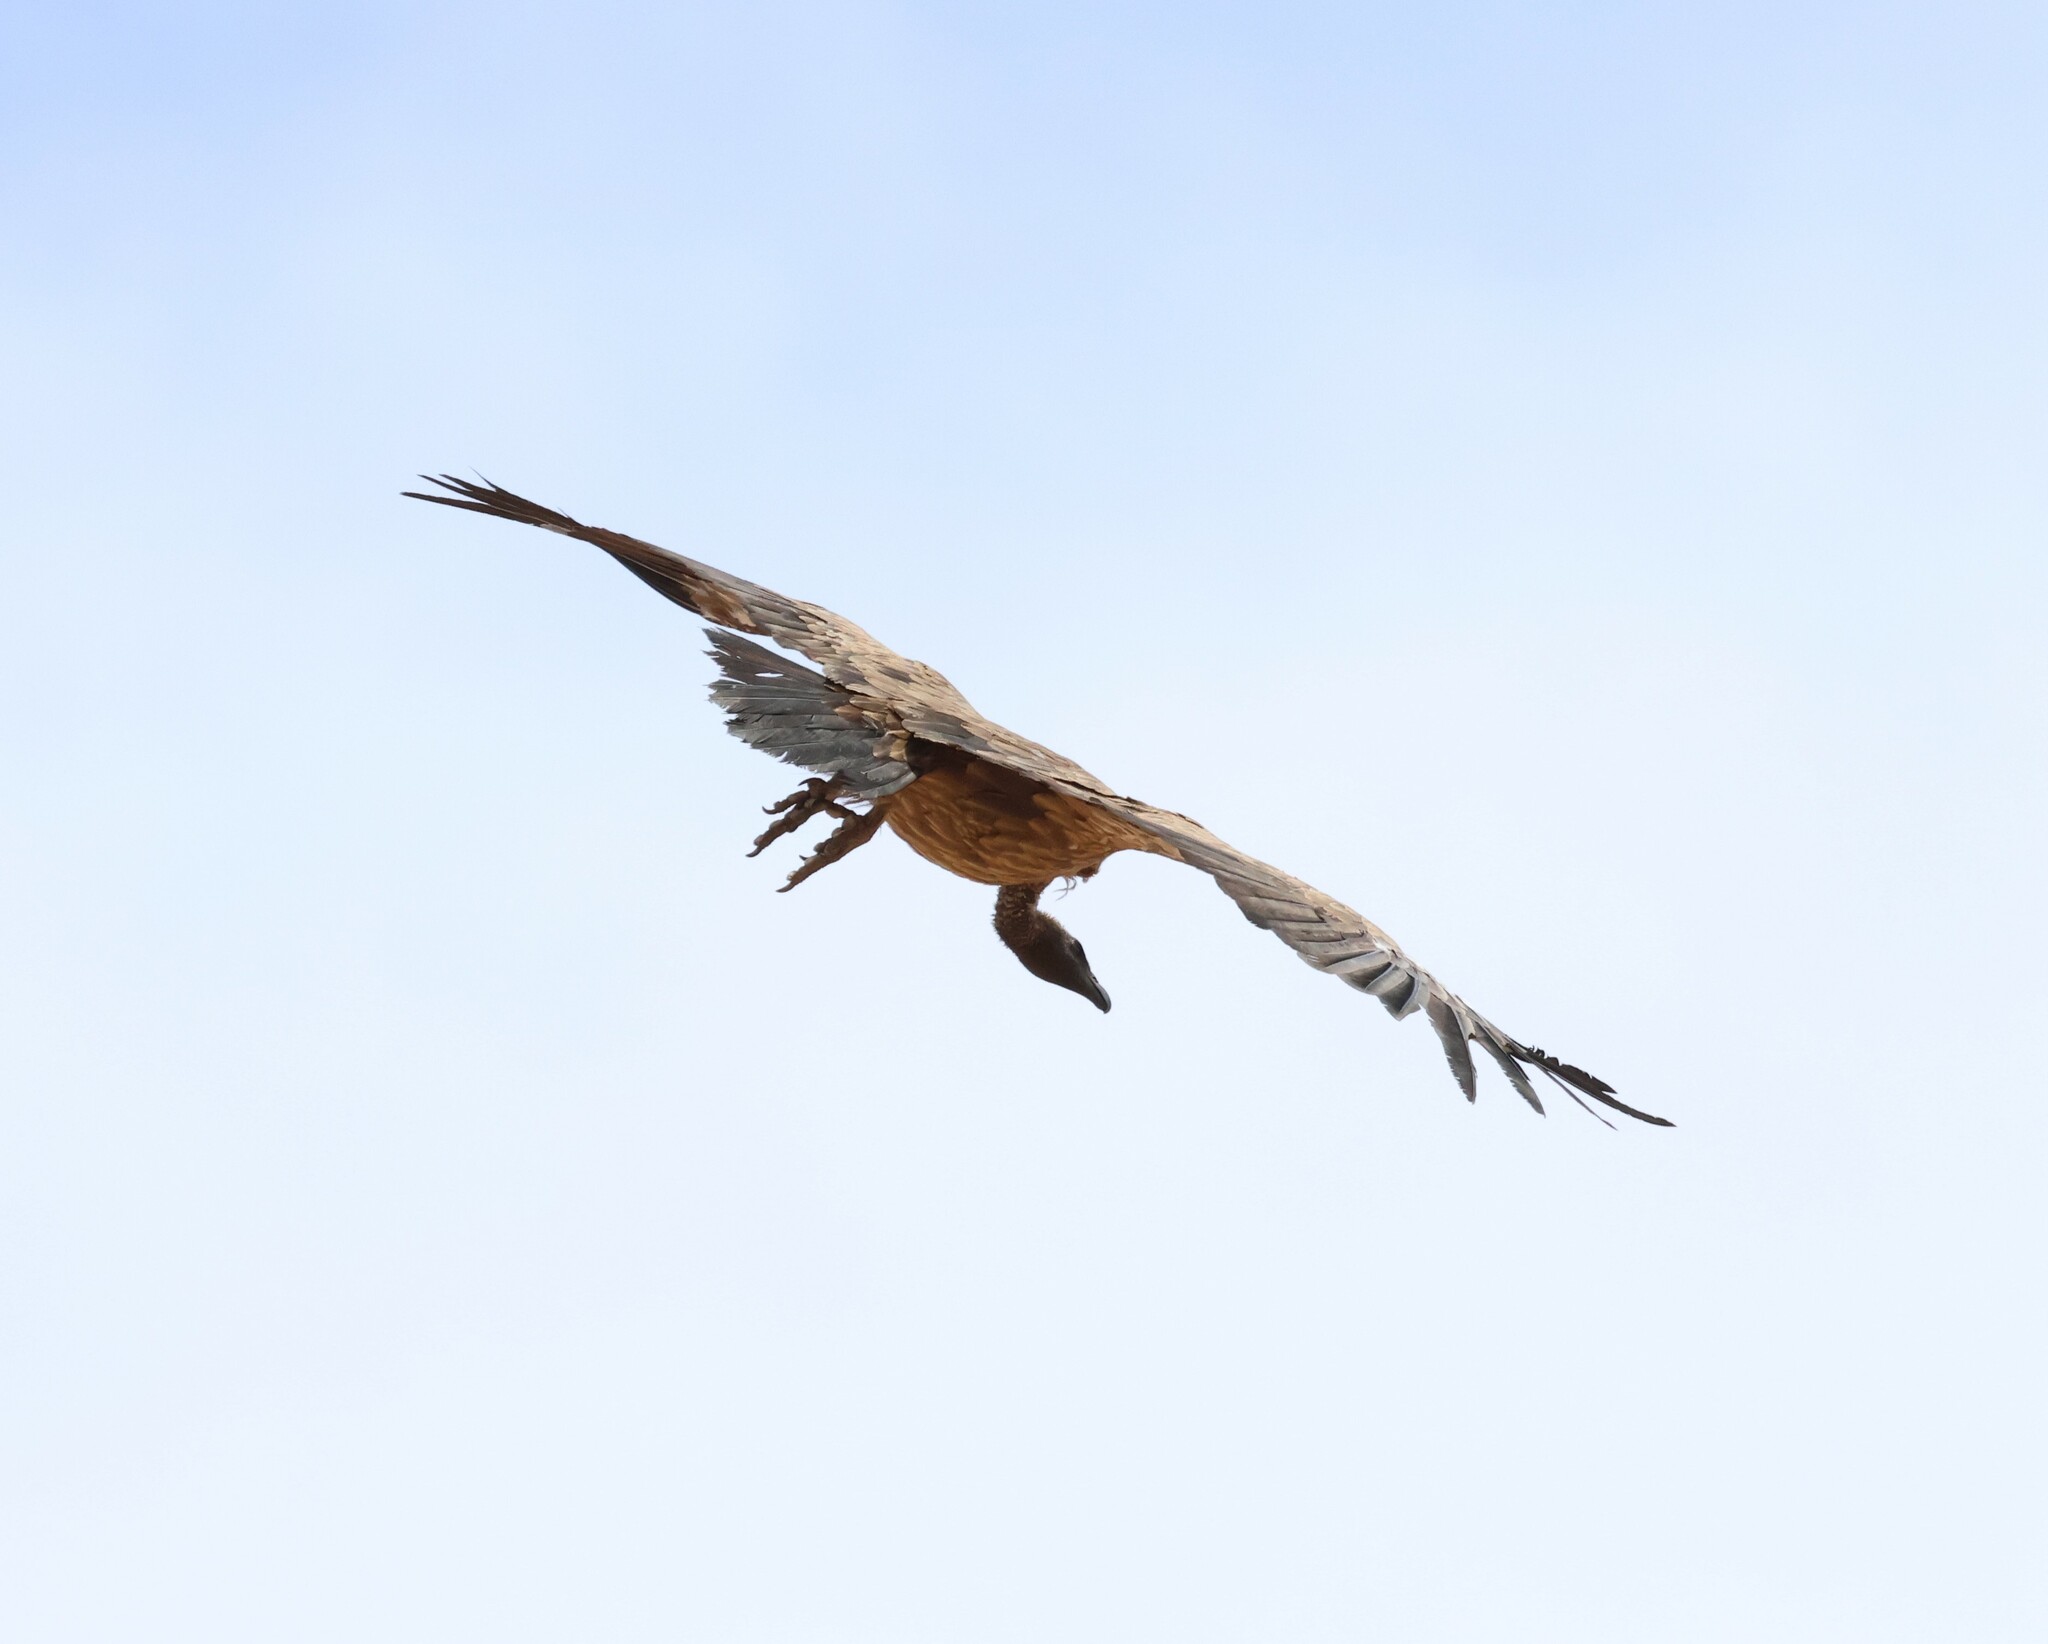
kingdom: Animalia
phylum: Chordata
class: Aves
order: Accipitriformes
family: Accipitridae
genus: Gyps
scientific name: Gyps africanus
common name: White-backed vulture
